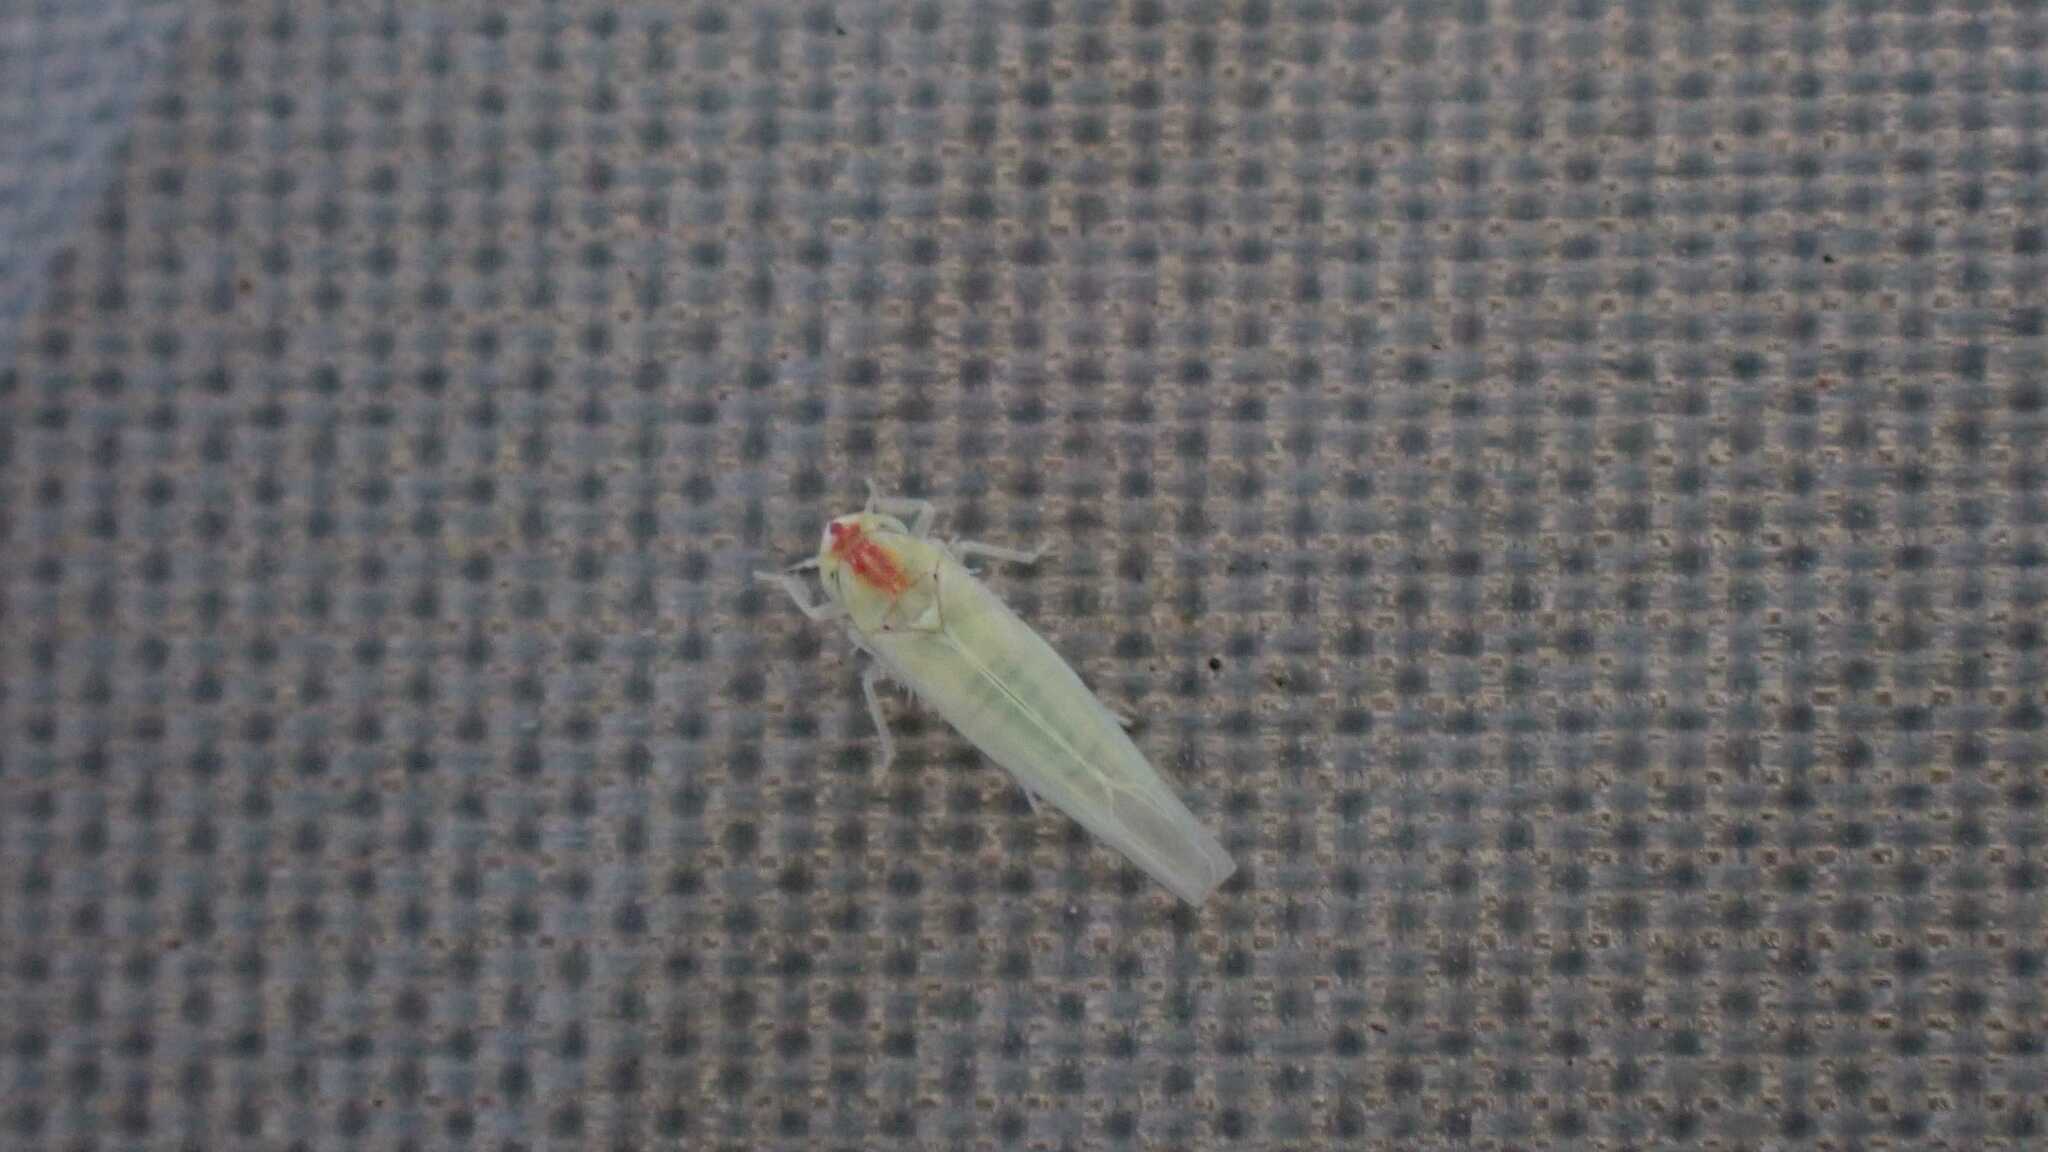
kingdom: Animalia
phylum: Arthropoda
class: Insecta
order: Hemiptera
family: Cicadellidae
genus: Zygina
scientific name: Zygina nivea
